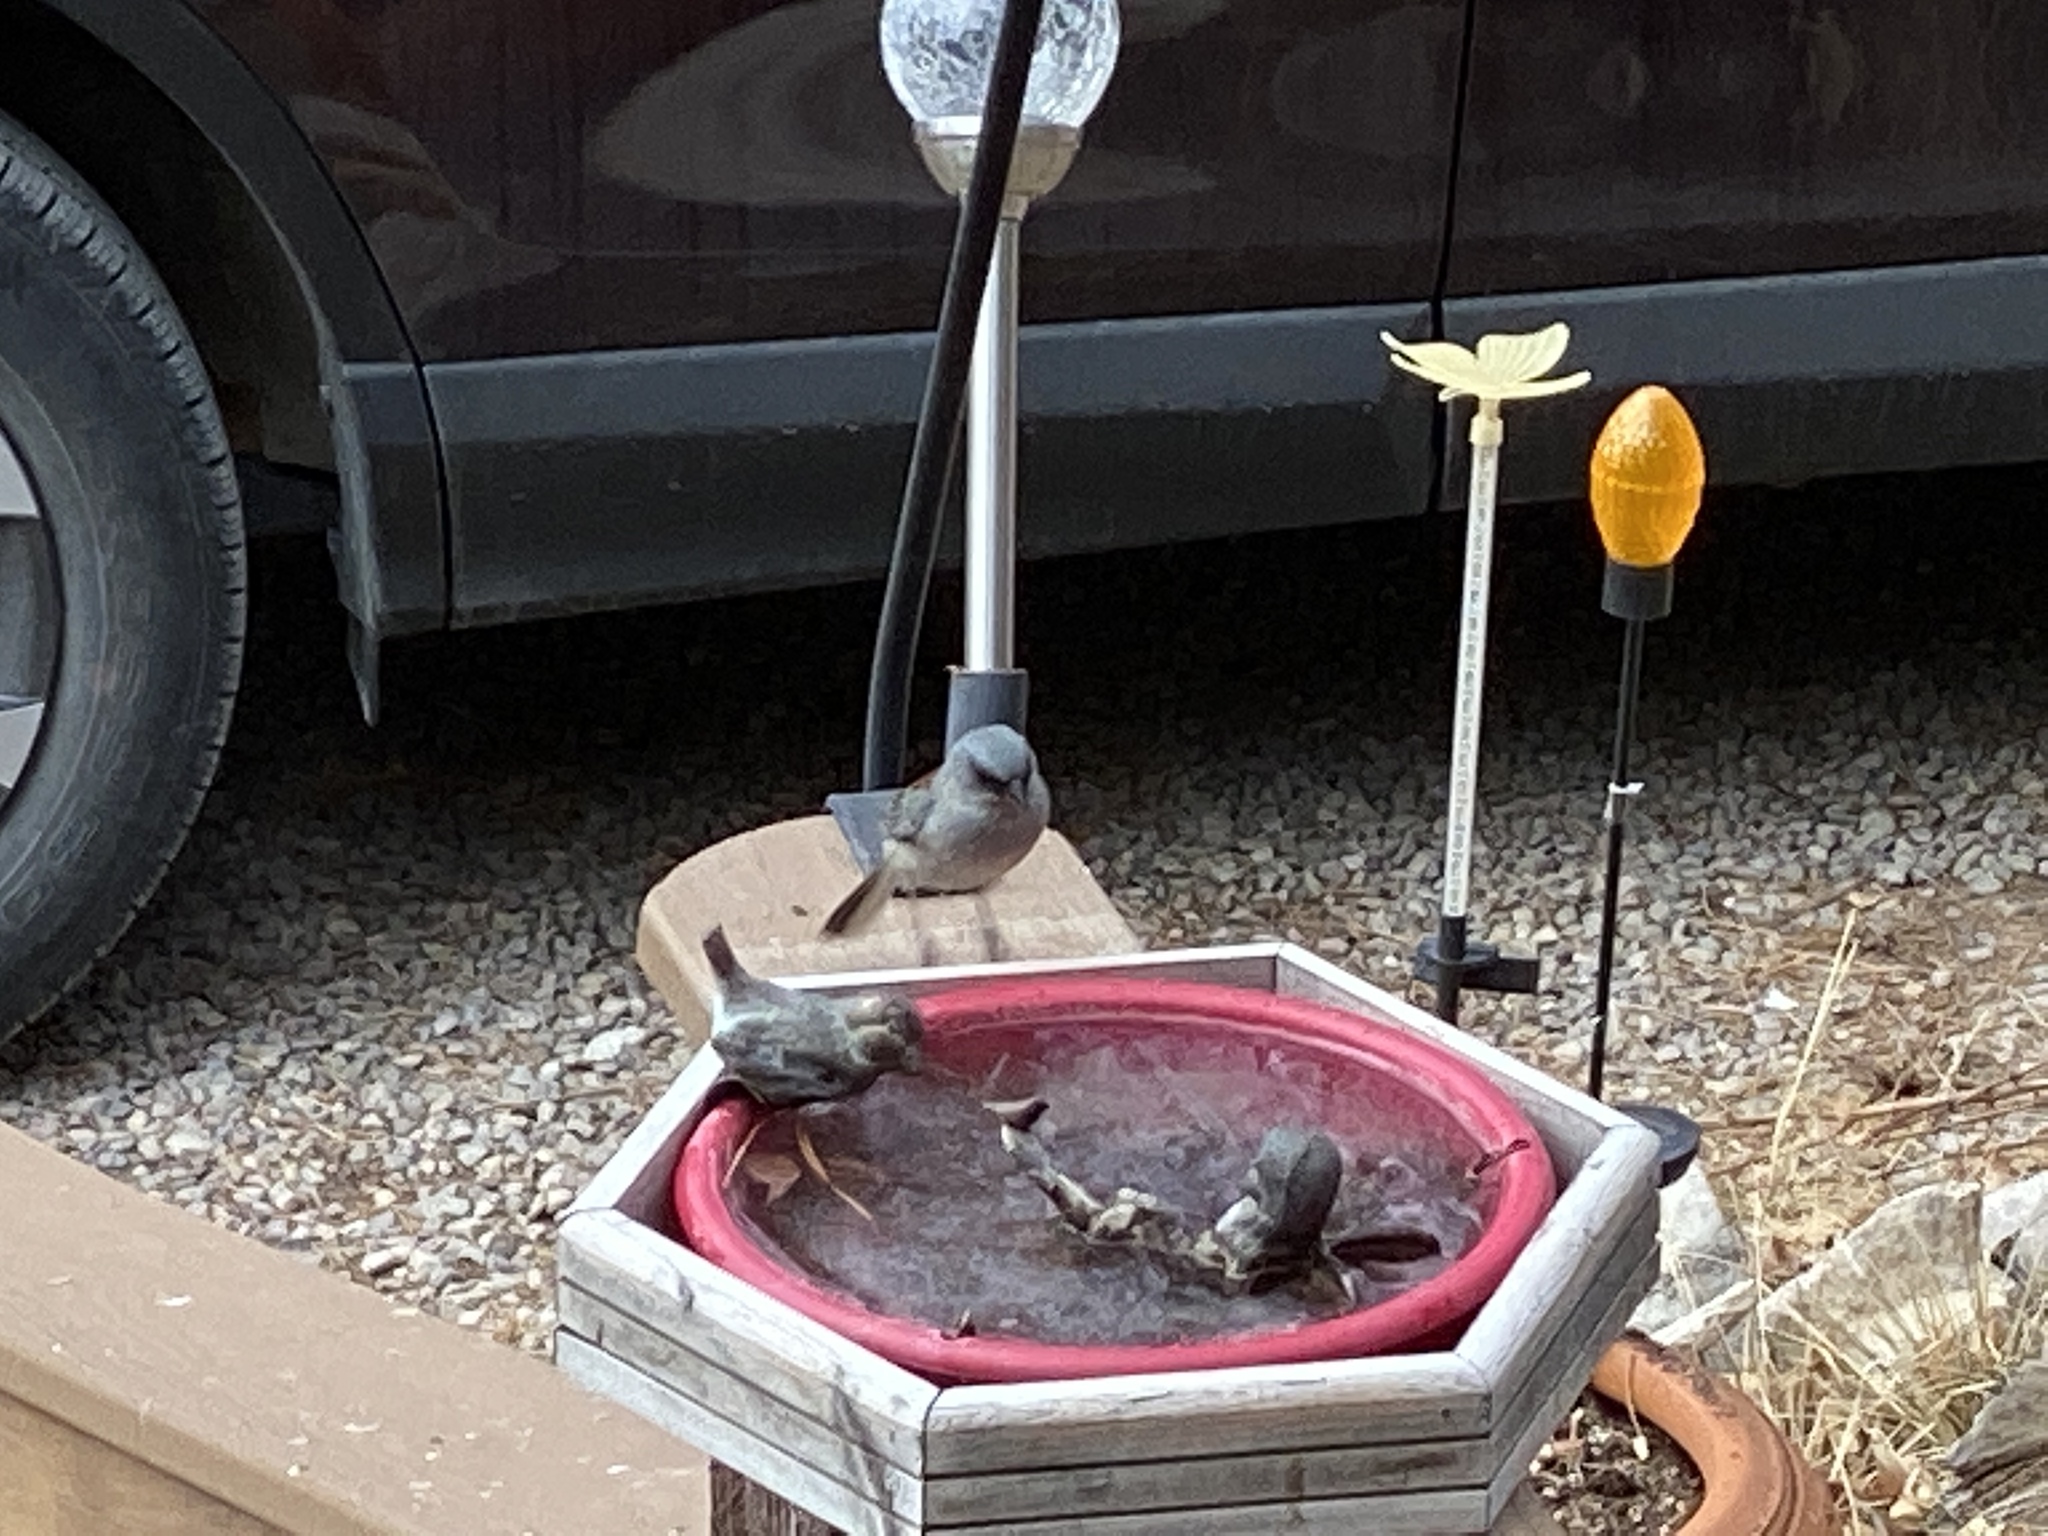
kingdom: Animalia
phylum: Chordata
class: Aves
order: Passeriformes
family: Passerellidae
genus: Junco
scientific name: Junco hyemalis
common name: Dark-eyed junco
